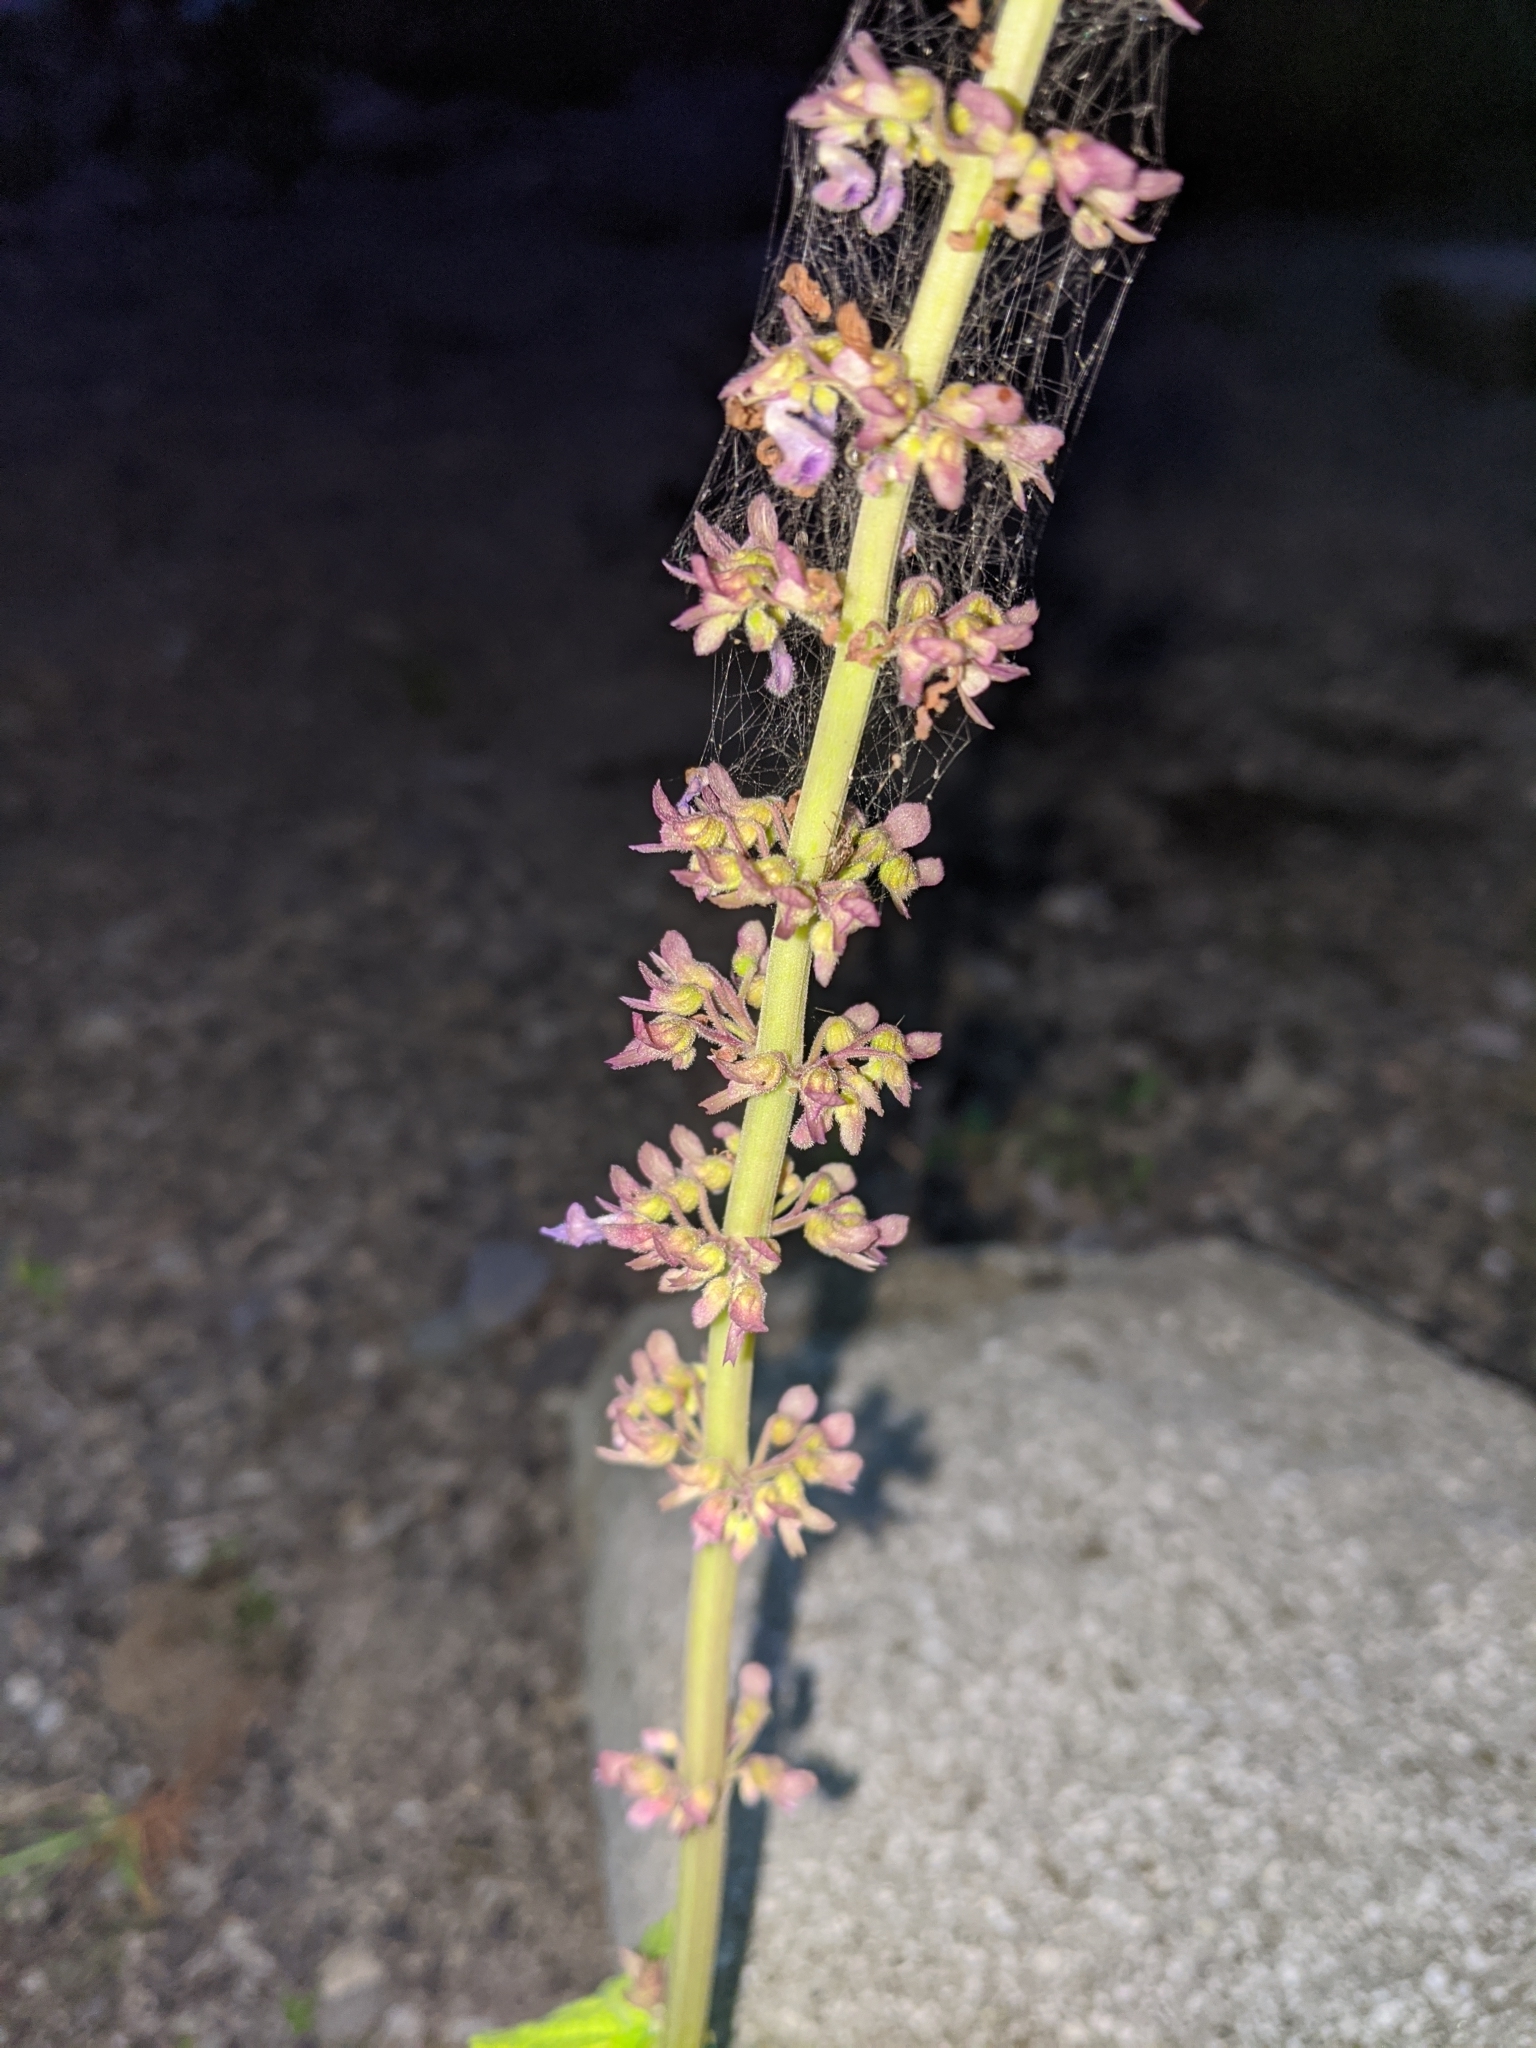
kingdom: Plantae
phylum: Tracheophyta
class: Magnoliopsida
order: Lamiales
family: Lamiaceae
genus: Coleus
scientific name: Coleus scutellarioides
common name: Coleus
